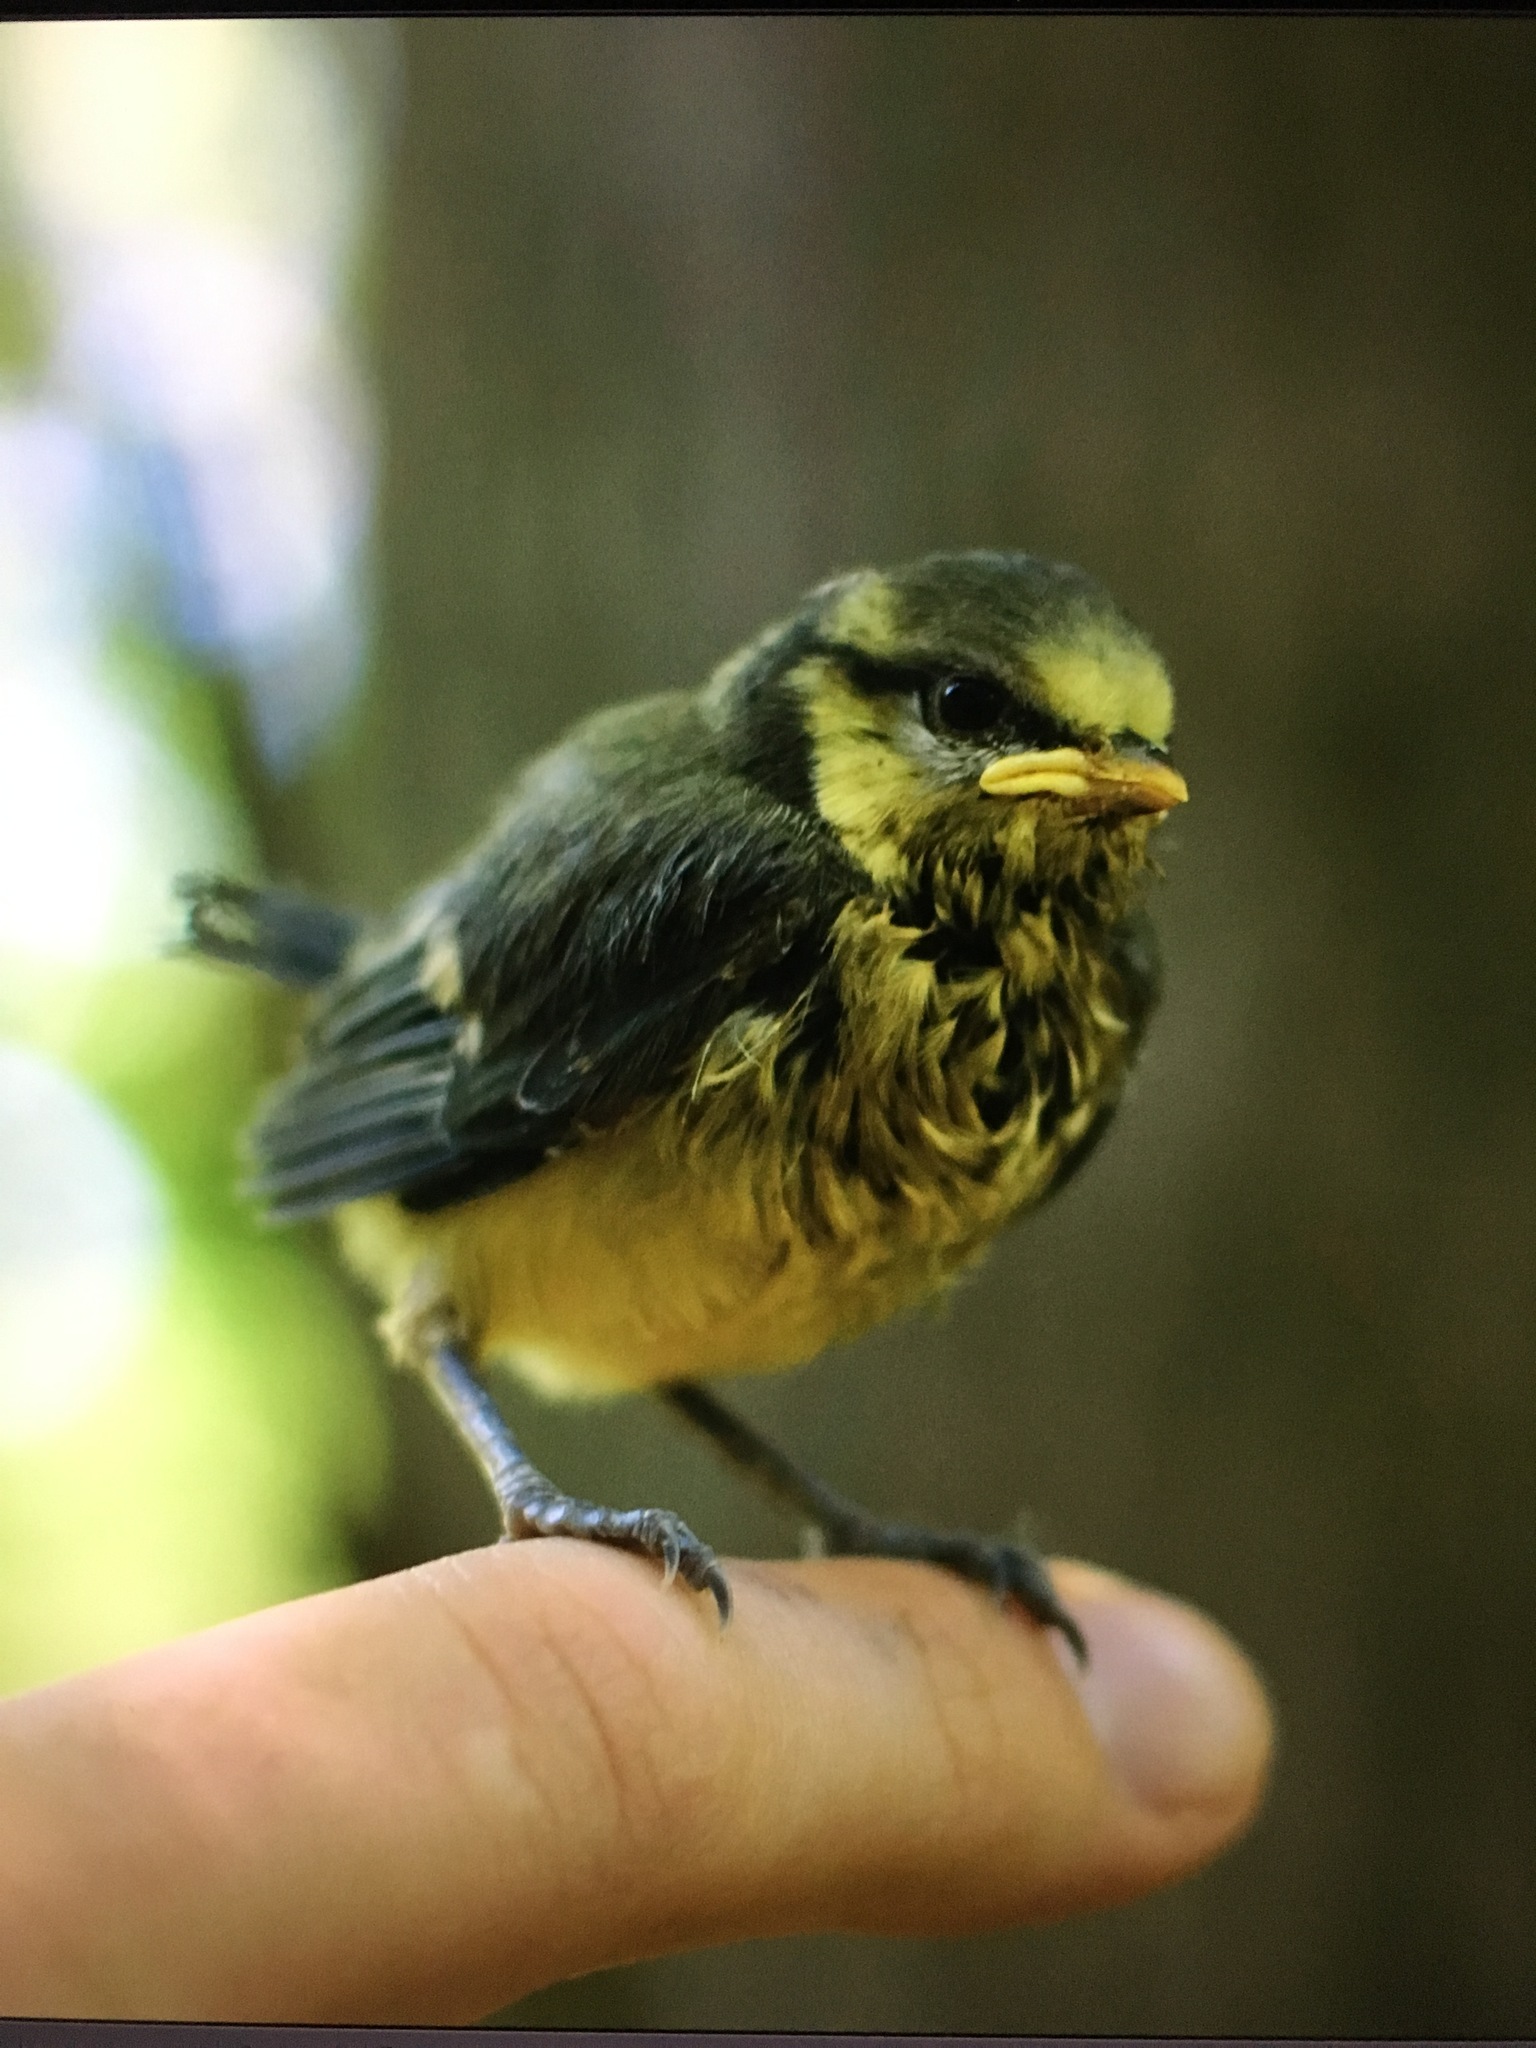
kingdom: Animalia
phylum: Chordata
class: Aves
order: Passeriformes
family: Paridae
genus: Cyanistes
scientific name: Cyanistes caeruleus
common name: Eurasian blue tit
